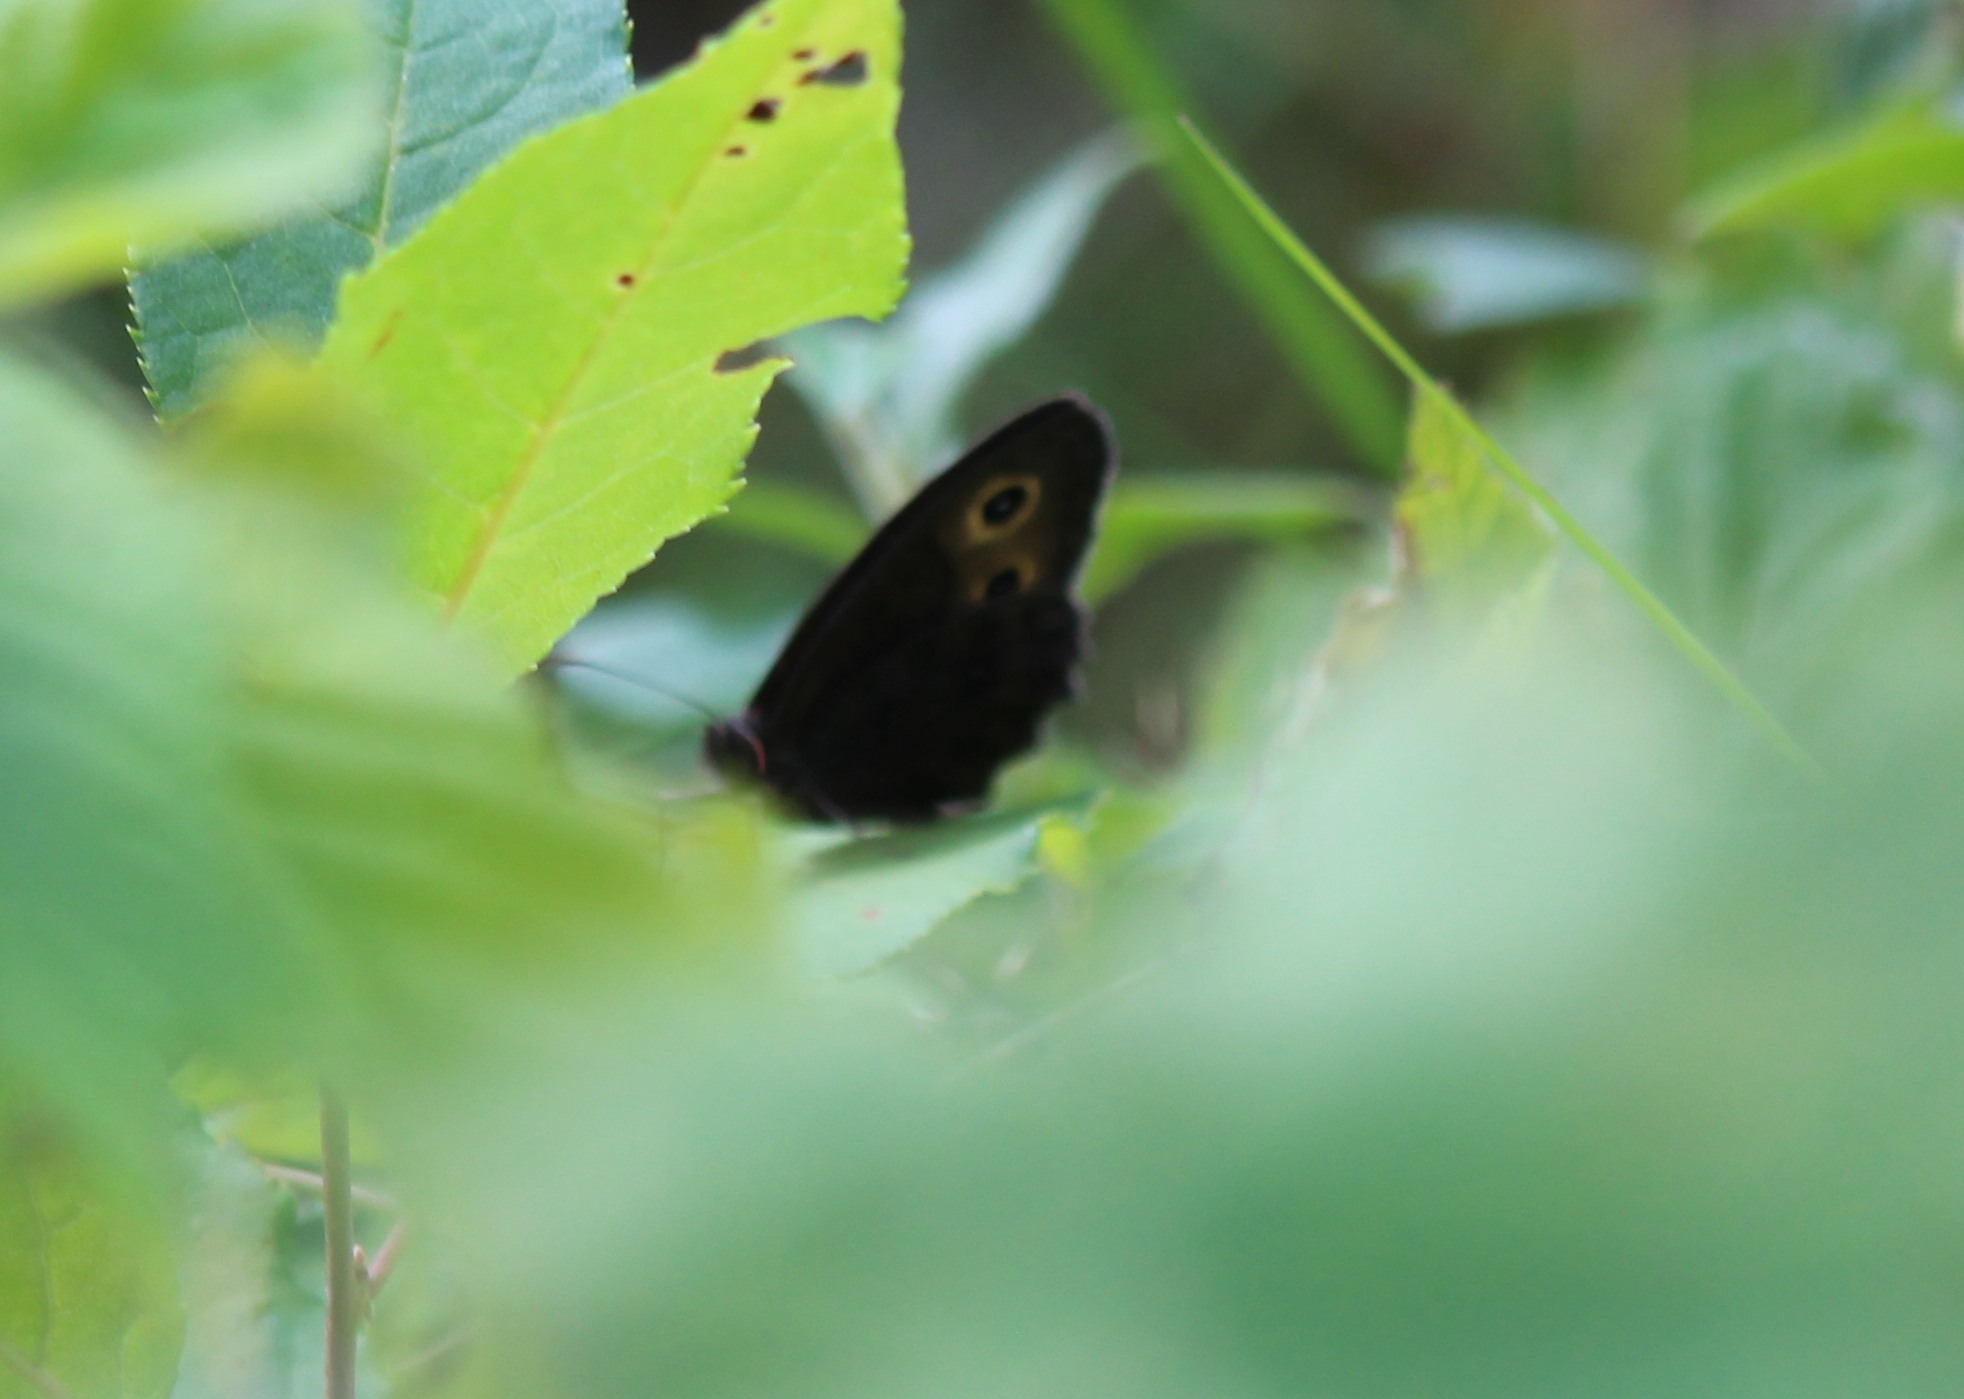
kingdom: Animalia
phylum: Arthropoda
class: Insecta
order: Lepidoptera
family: Nymphalidae
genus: Cercyonis
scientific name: Cercyonis pegala
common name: Common wood-nymph
